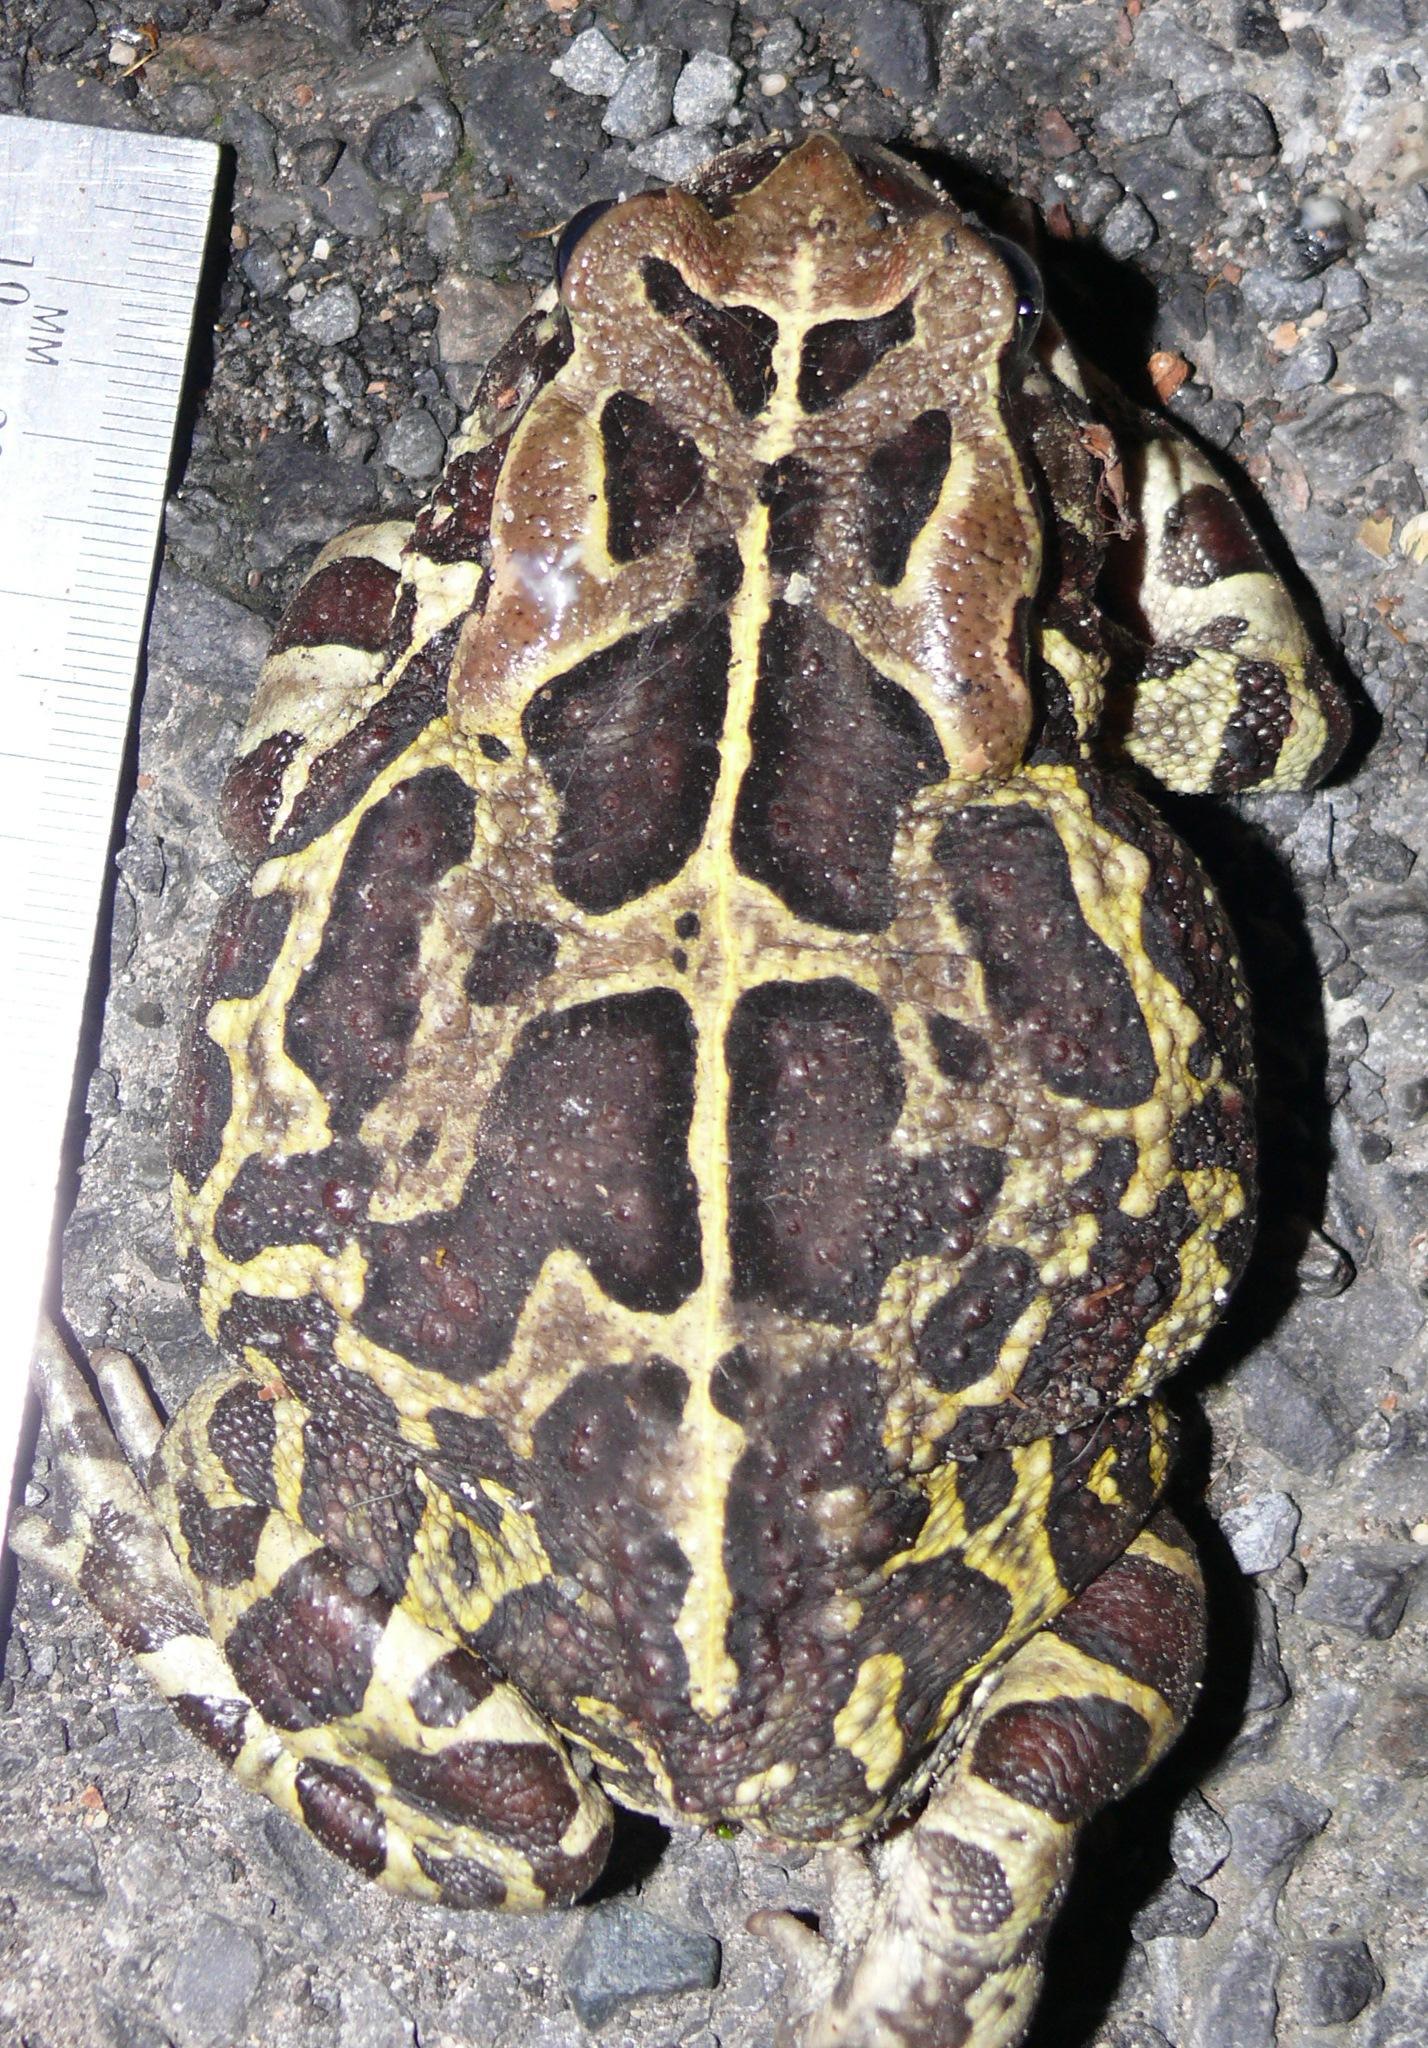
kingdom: Animalia
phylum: Chordata
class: Amphibia
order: Anura
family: Bufonidae
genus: Sclerophrys
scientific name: Sclerophrys pantherina
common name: Panther toad
